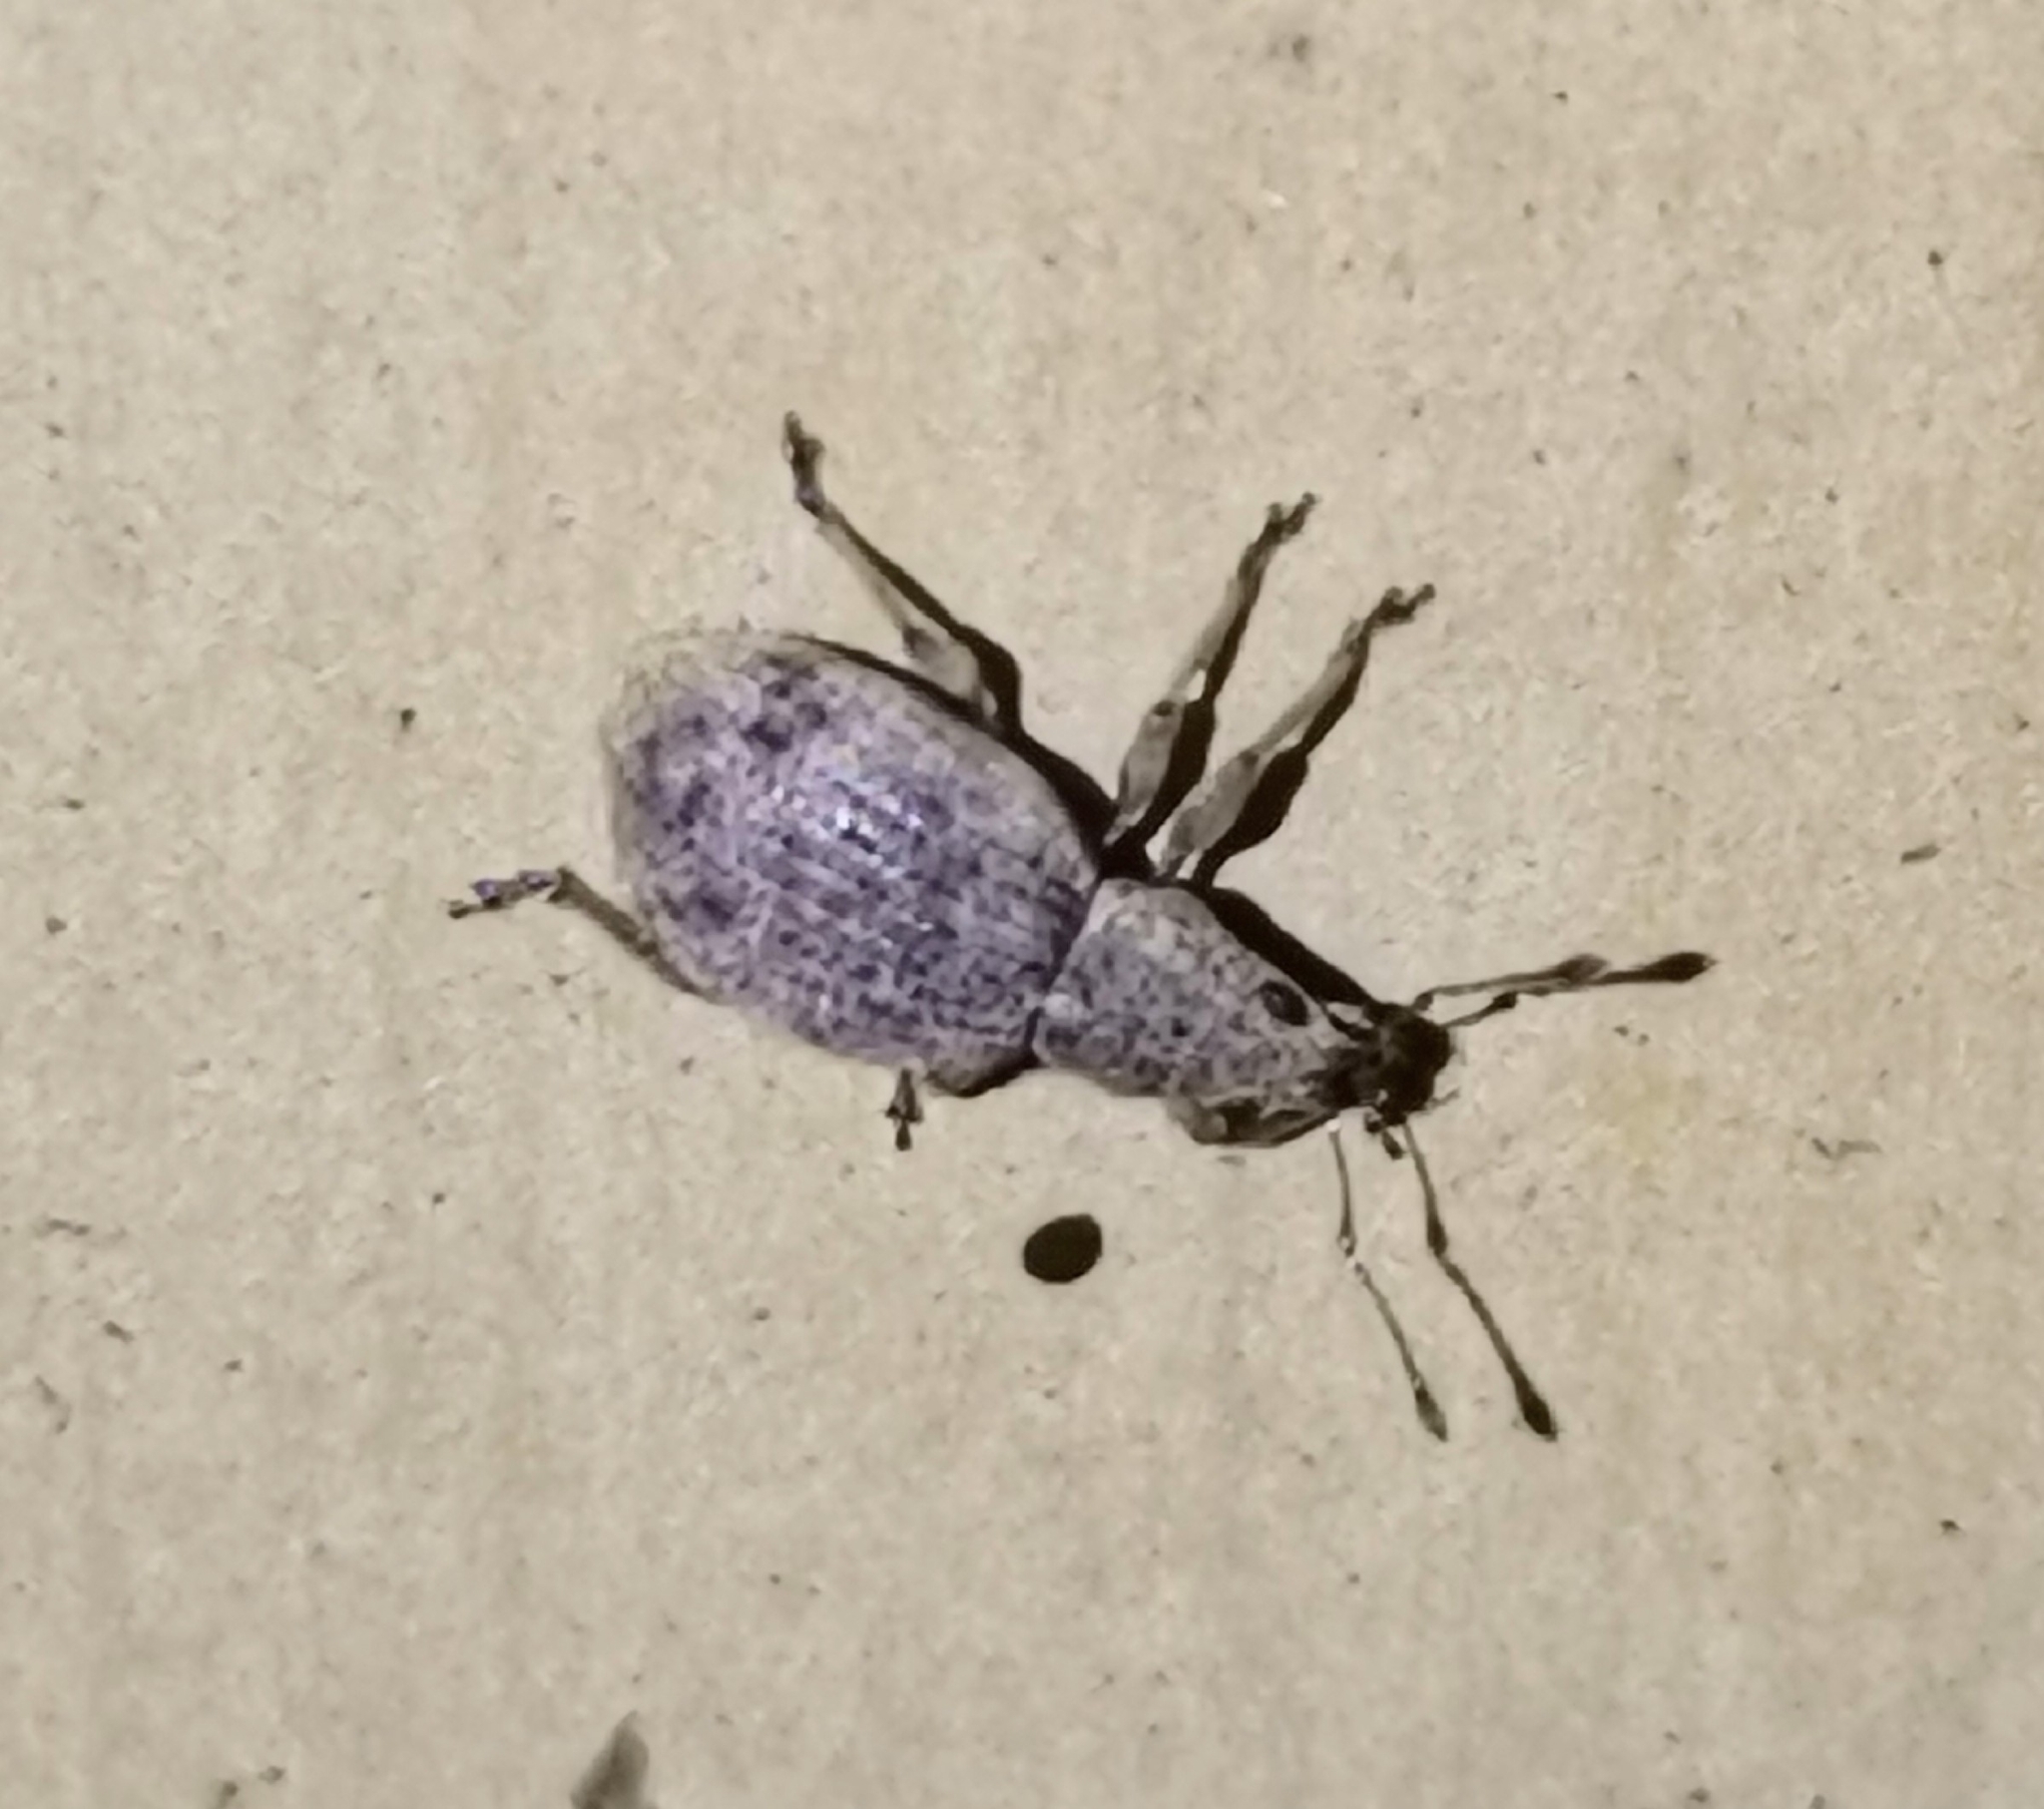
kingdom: Animalia
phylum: Arthropoda
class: Insecta
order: Coleoptera
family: Curculionidae
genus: Sciaphilus
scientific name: Sciaphilus asperatus
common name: Weevil
